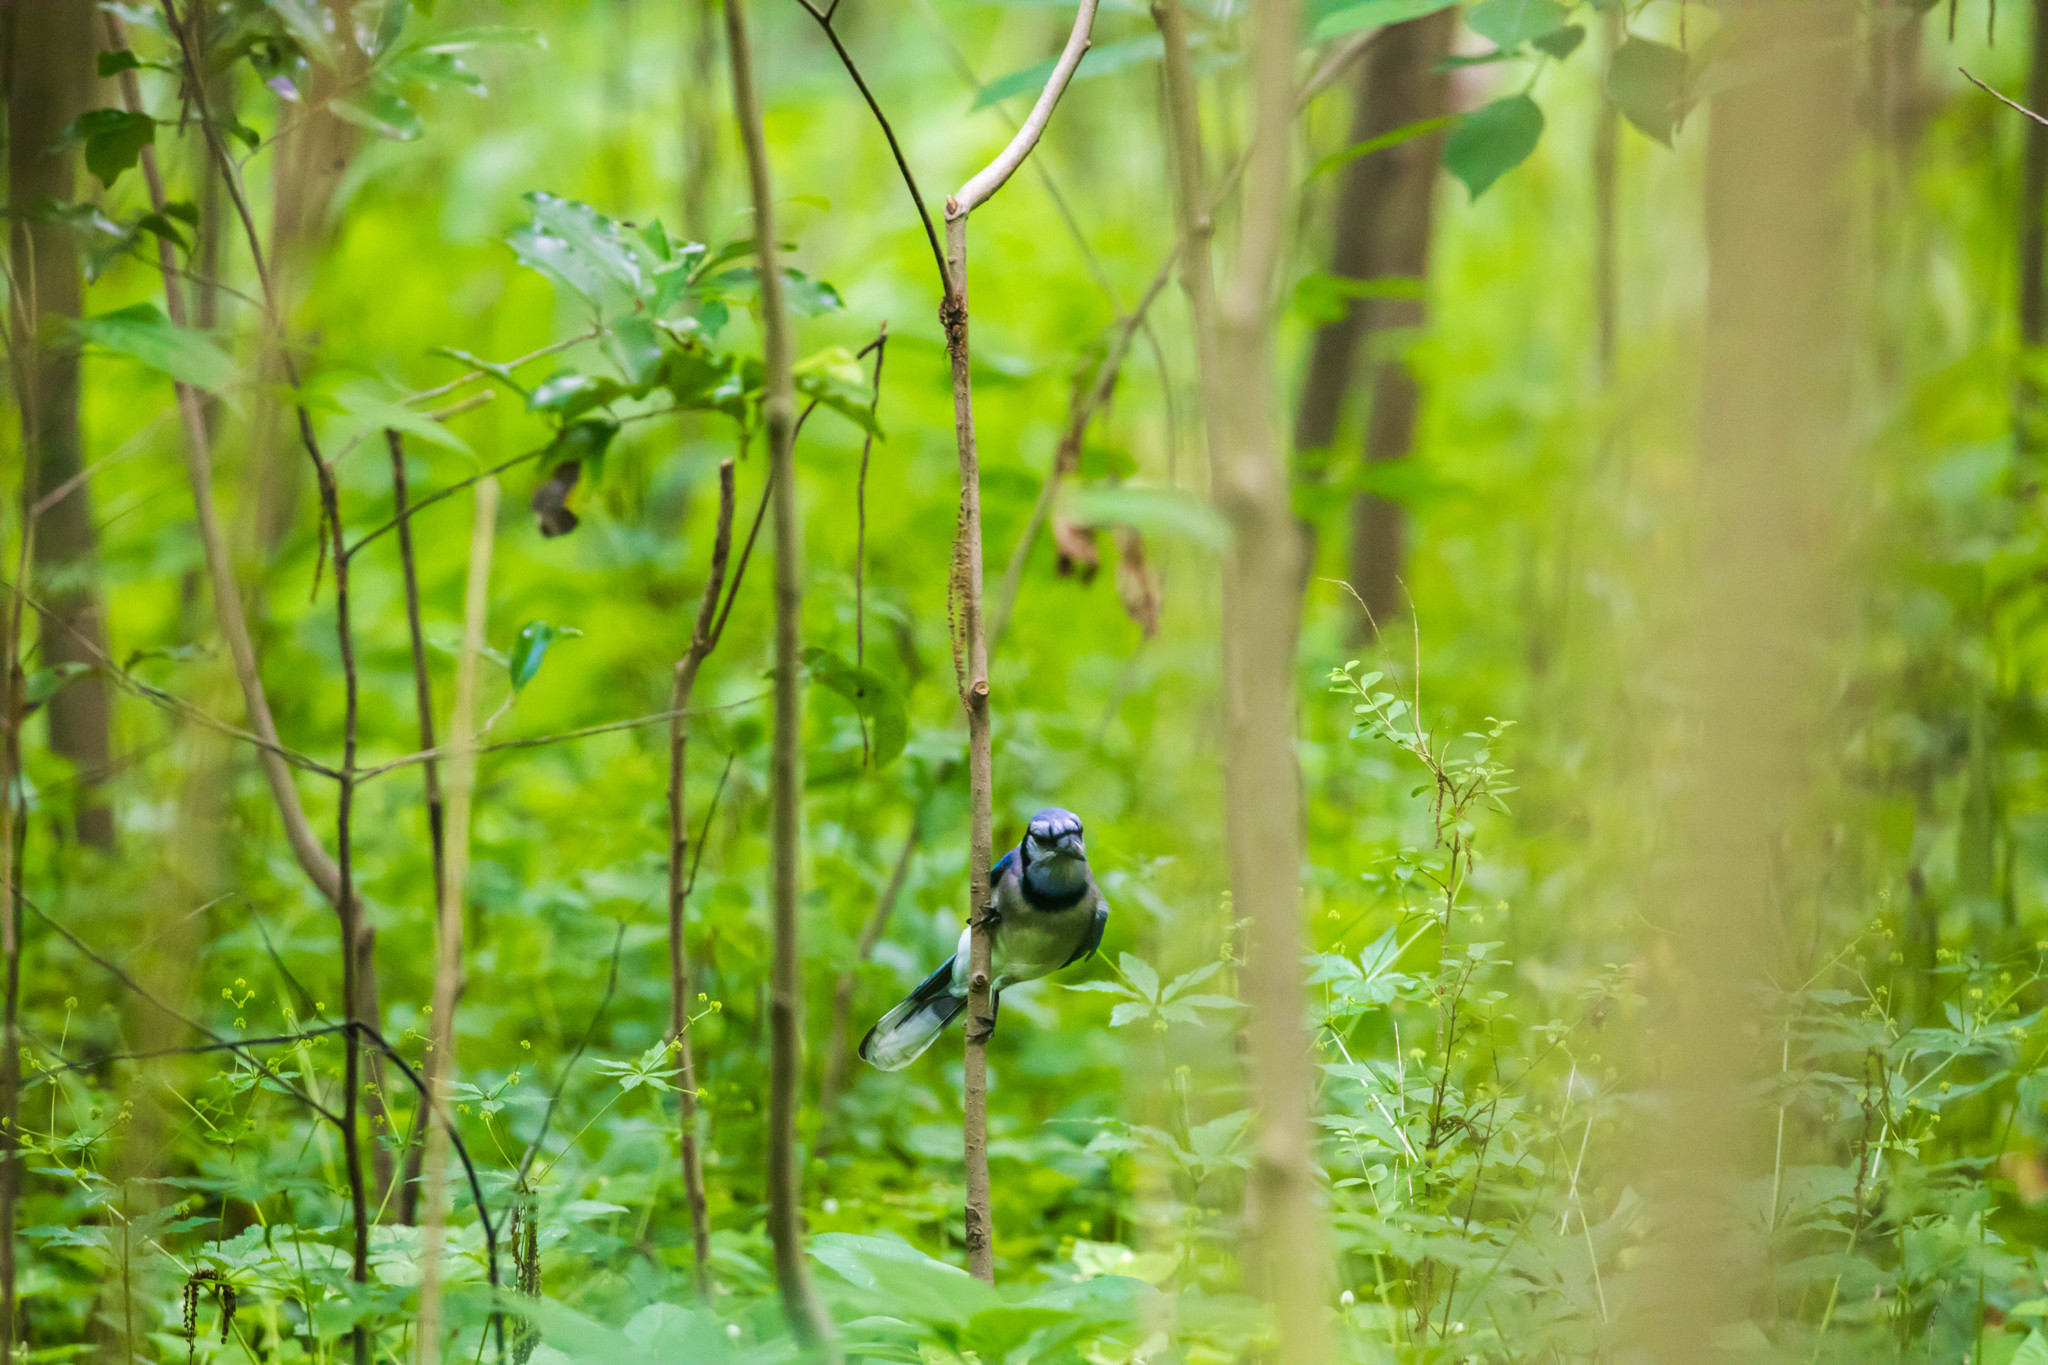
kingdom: Animalia
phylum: Chordata
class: Aves
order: Passeriformes
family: Corvidae
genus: Cyanocitta
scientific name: Cyanocitta cristata
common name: Blue jay
